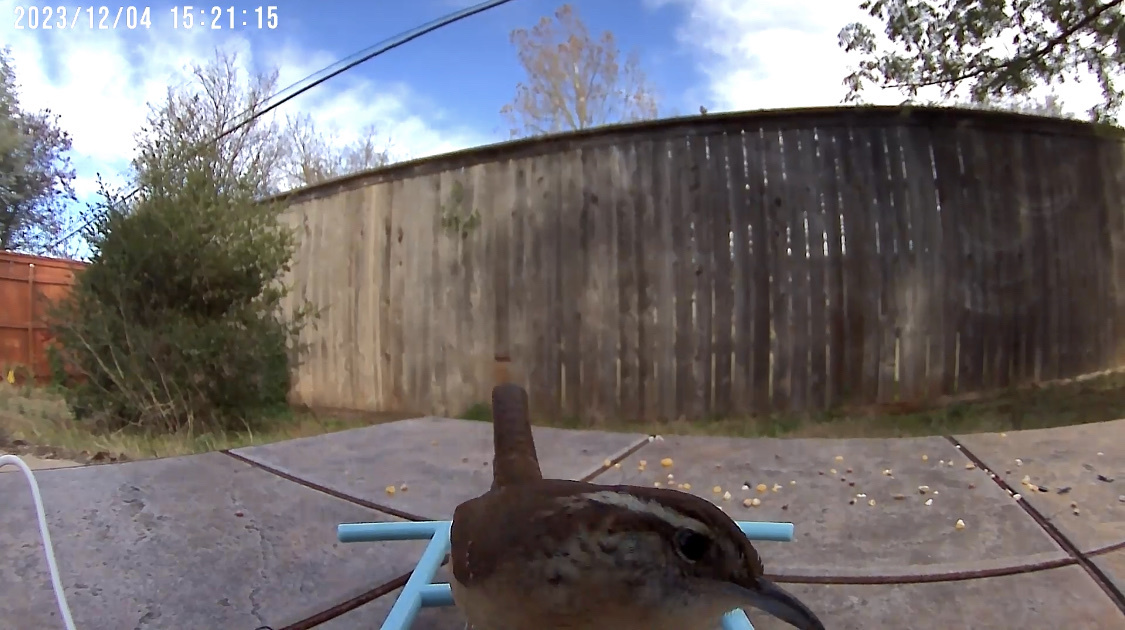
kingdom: Animalia
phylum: Chordata
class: Aves
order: Passeriformes
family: Troglodytidae
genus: Thryothorus
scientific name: Thryothorus ludovicianus
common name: Carolina wren
